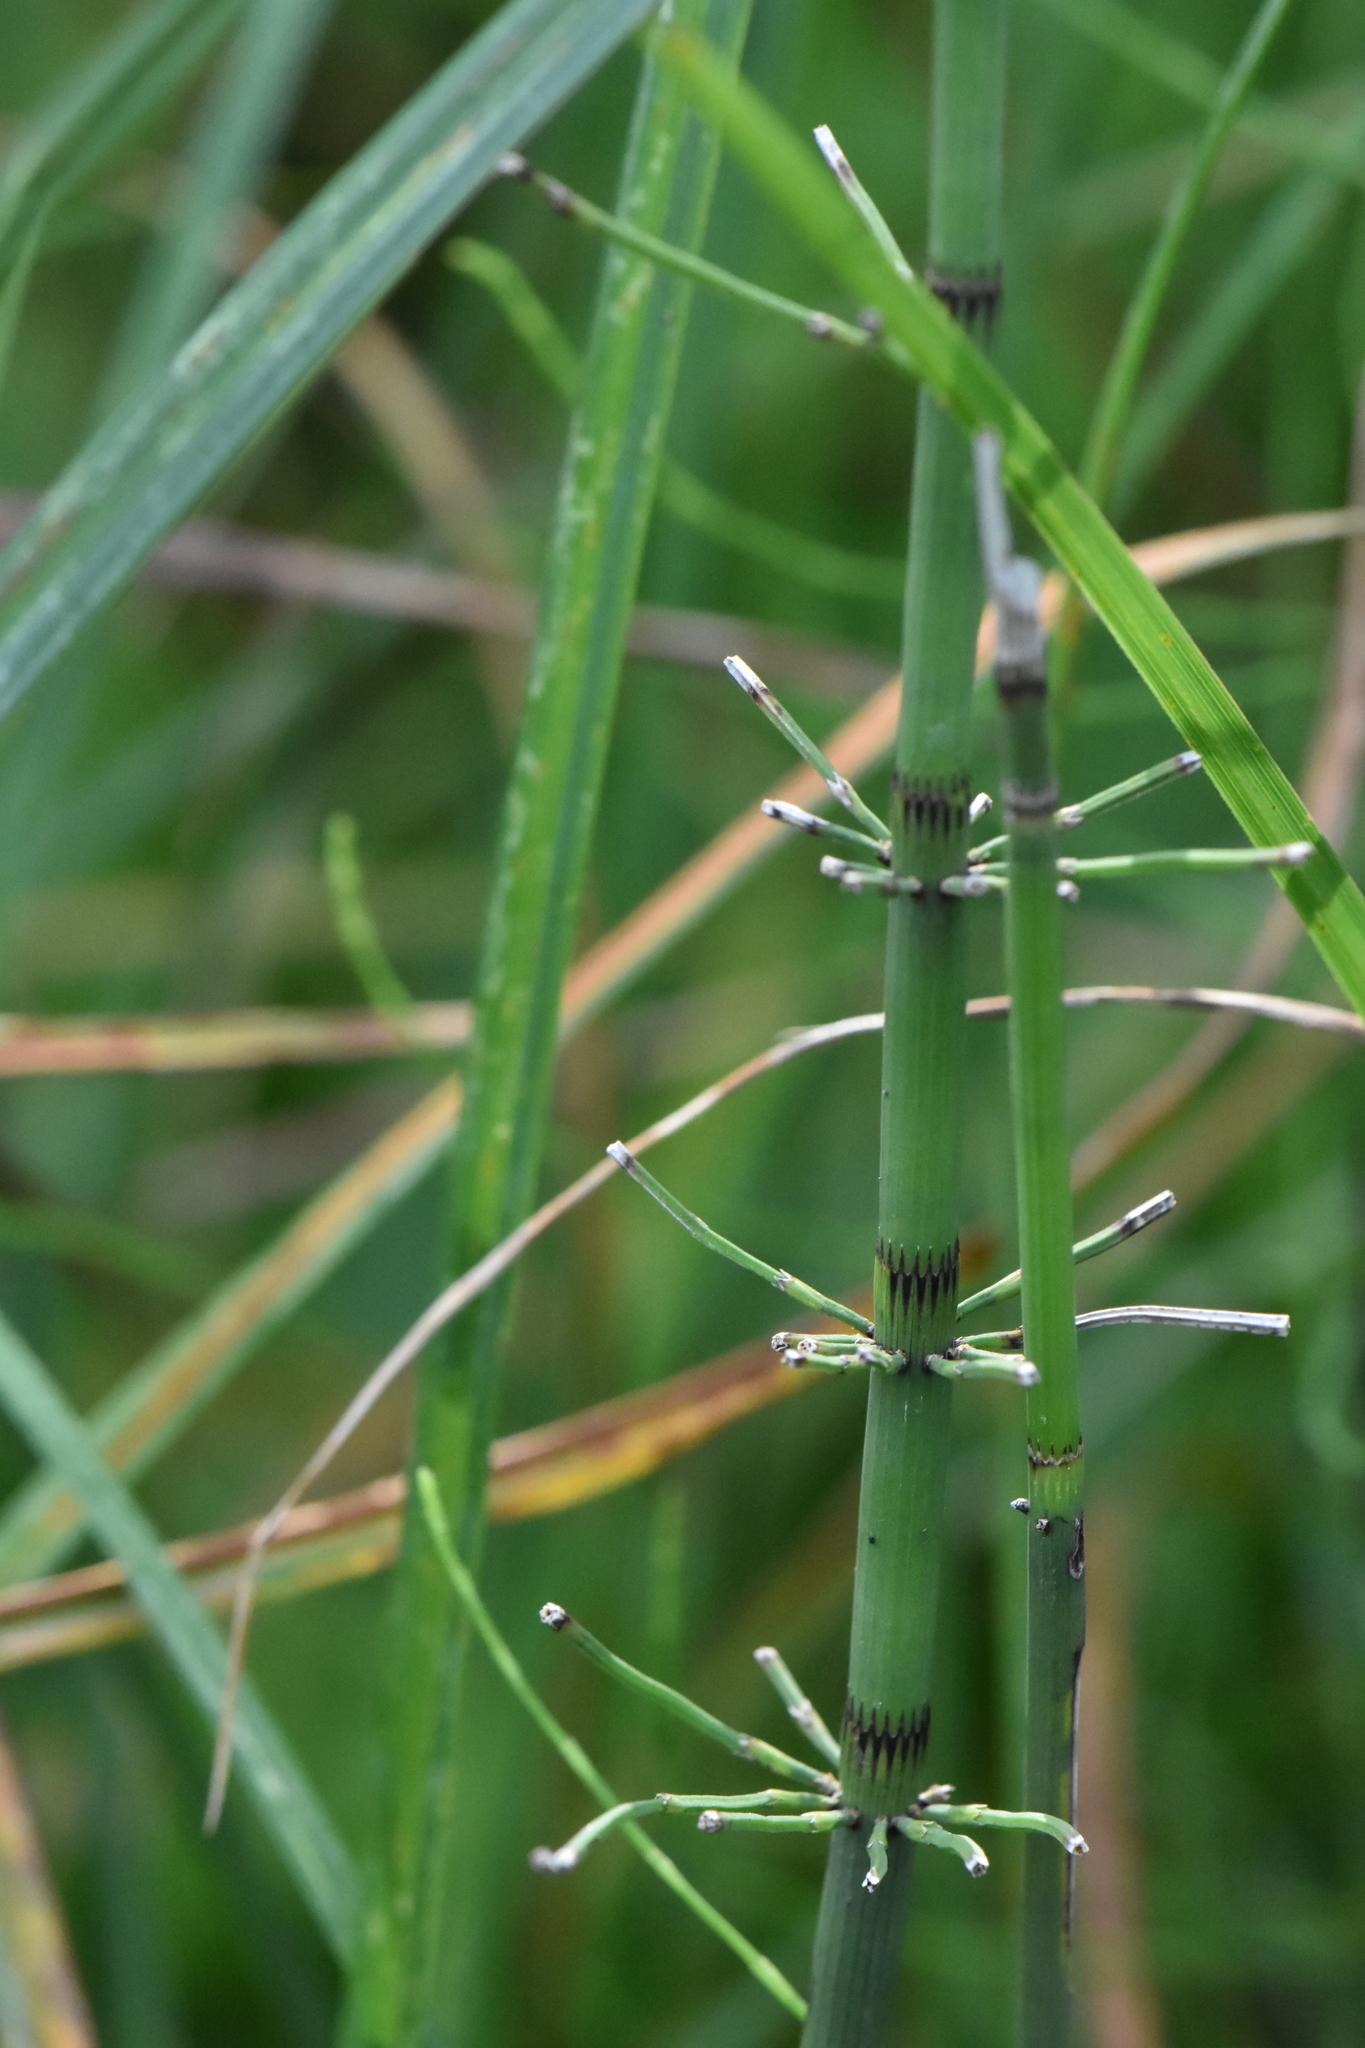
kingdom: Plantae
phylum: Tracheophyta
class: Polypodiopsida
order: Equisetales
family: Equisetaceae
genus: Equisetum
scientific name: Equisetum fluviatile
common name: Water horsetail
